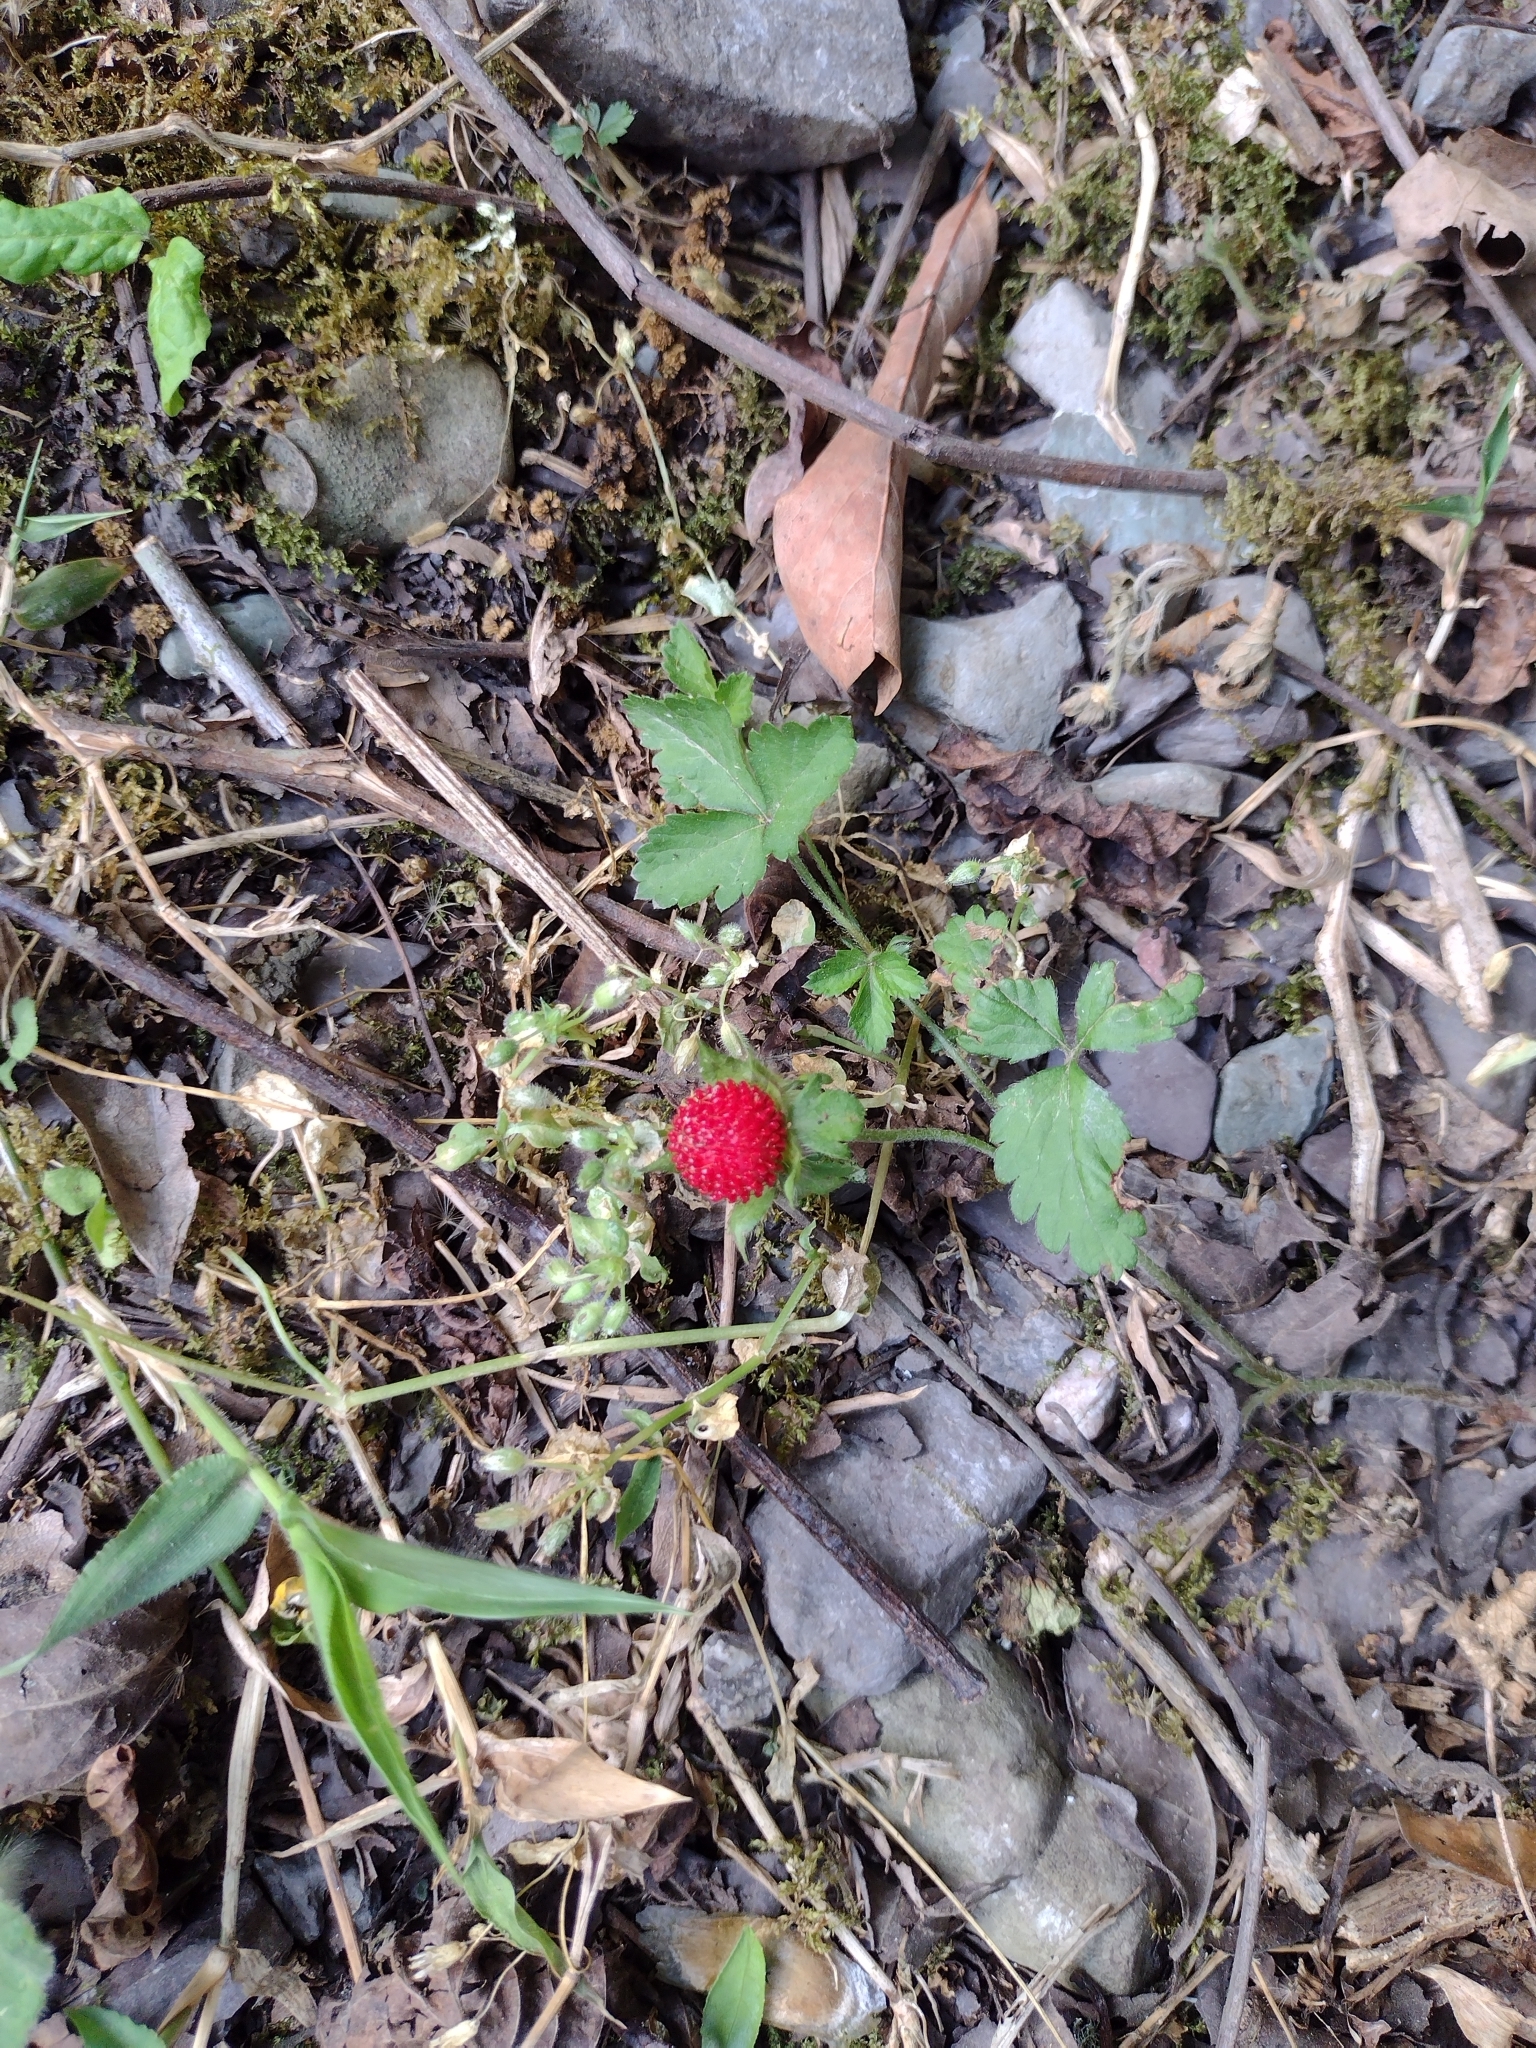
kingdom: Plantae
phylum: Tracheophyta
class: Magnoliopsida
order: Rosales
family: Rosaceae
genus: Potentilla
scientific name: Potentilla indica
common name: Yellow-flowered strawberry
